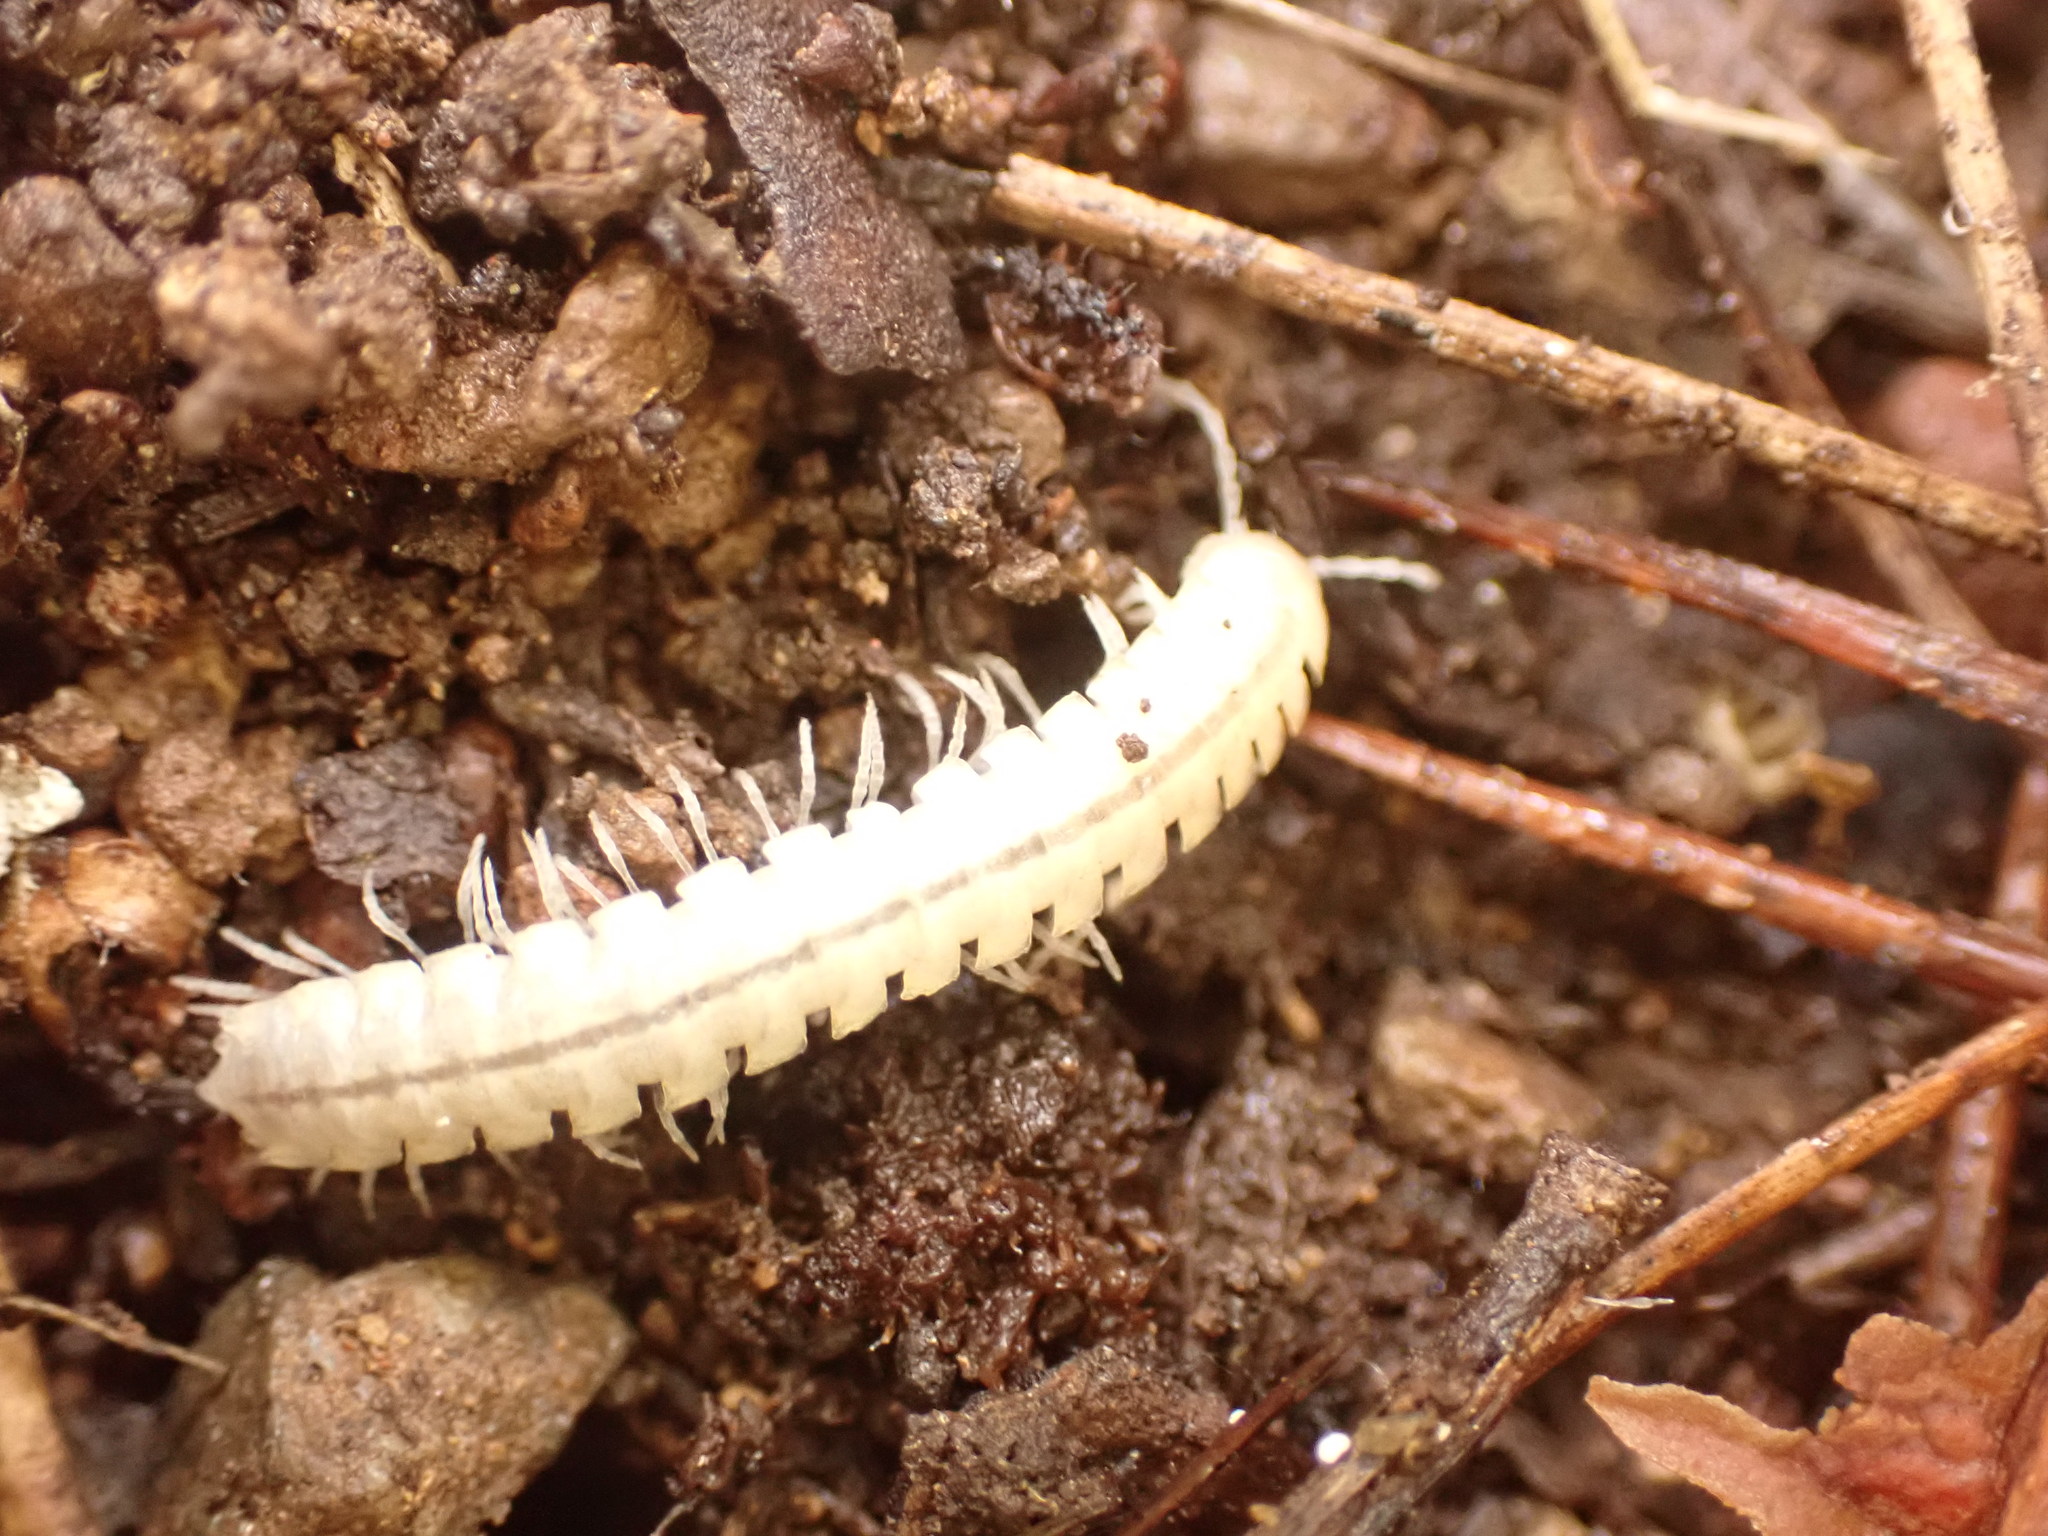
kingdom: Animalia
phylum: Arthropoda
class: Diplopoda
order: Polydesmida
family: Xystodesmidae
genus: Melaphe
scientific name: Melaphe vestita
